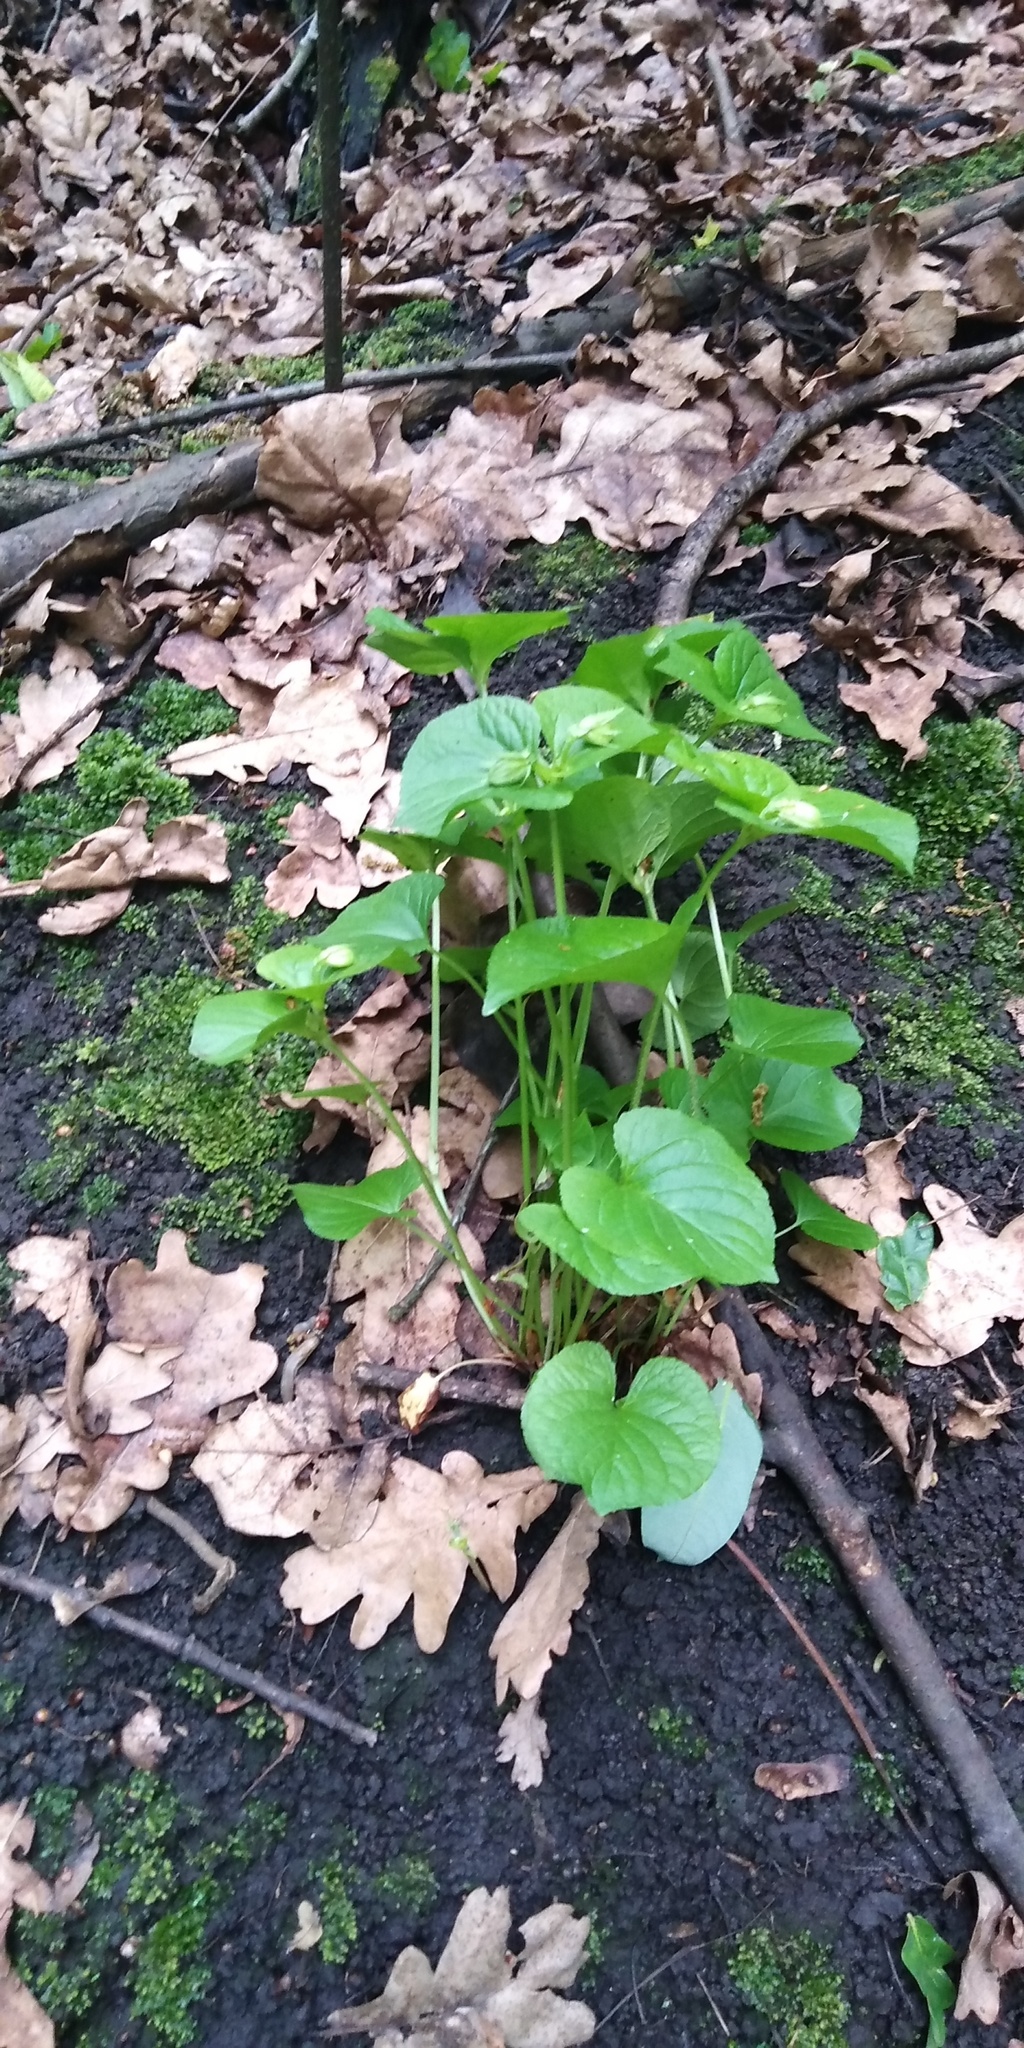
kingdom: Plantae
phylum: Tracheophyta
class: Magnoliopsida
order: Malpighiales
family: Violaceae
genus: Viola
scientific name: Viola mirabilis
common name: Wonder violet
